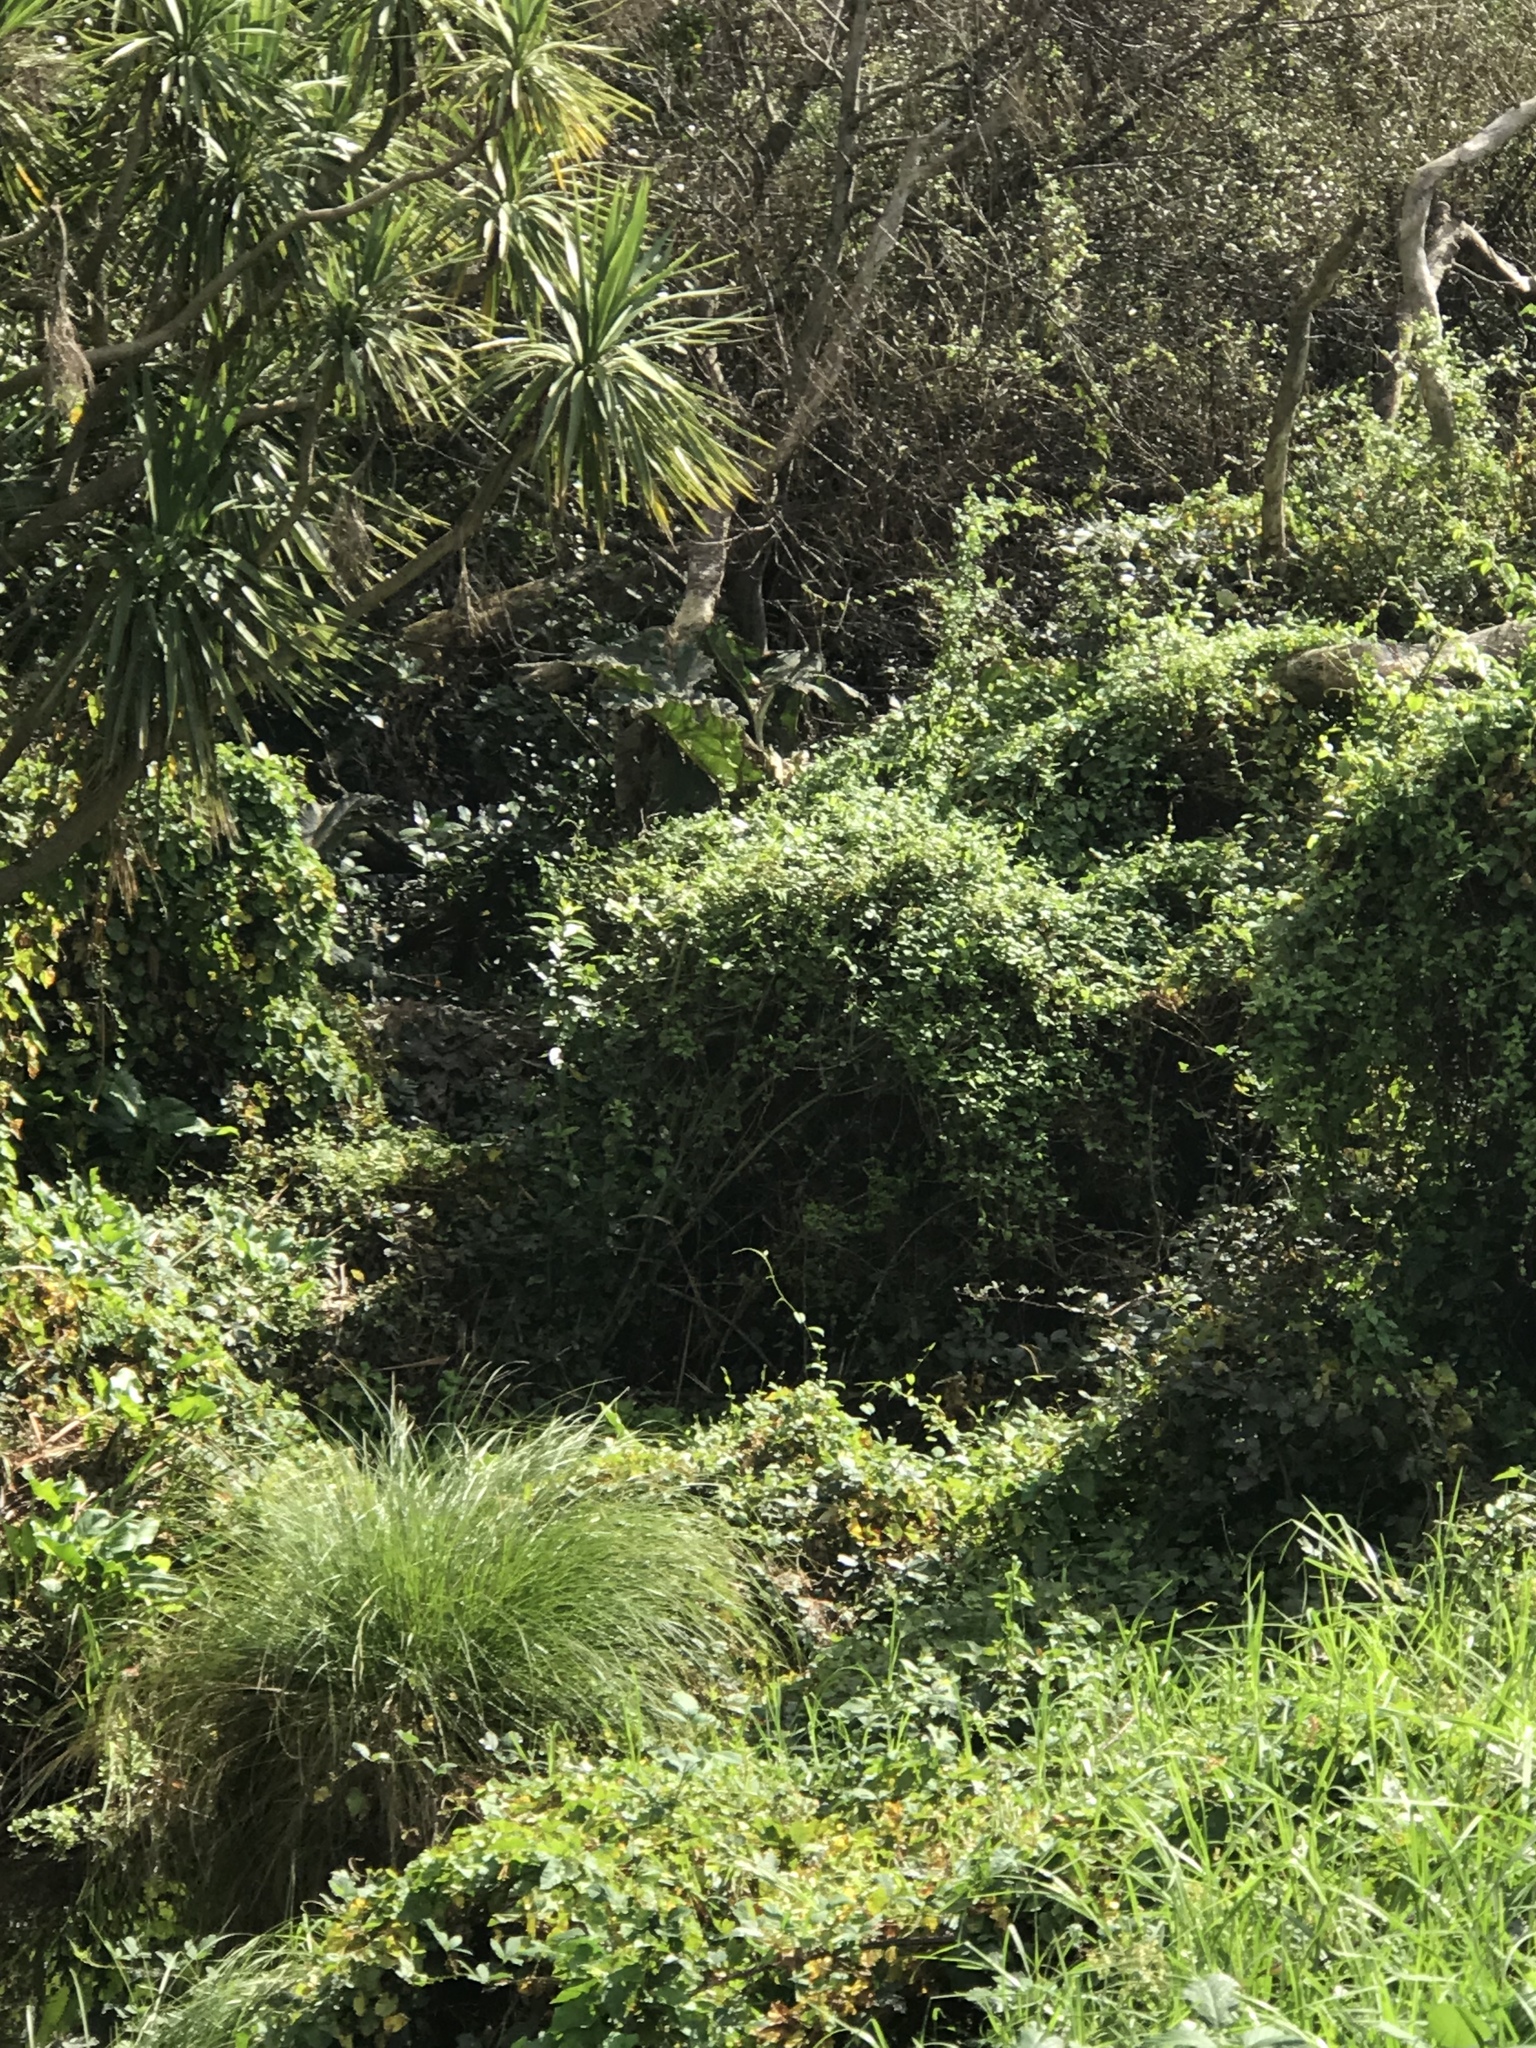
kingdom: Plantae
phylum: Tracheophyta
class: Magnoliopsida
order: Gunnerales
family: Gunneraceae
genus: Gunnera
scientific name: Gunnera tinctoria
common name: Giant-rhubarb
